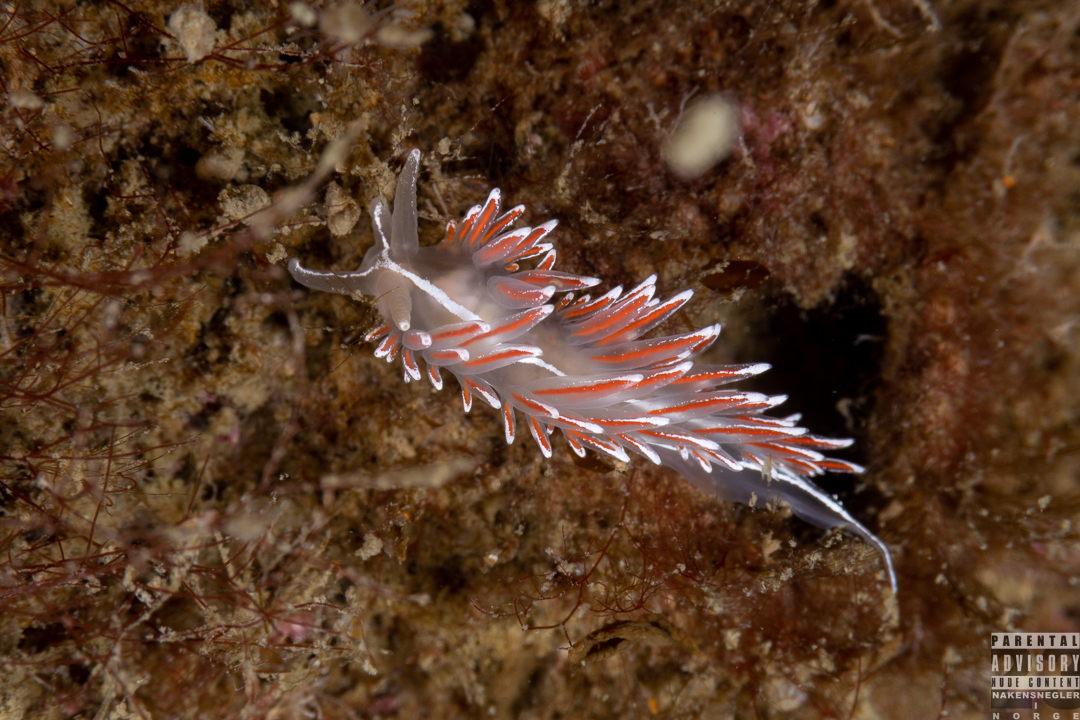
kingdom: Animalia
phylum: Mollusca
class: Gastropoda
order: Nudibranchia
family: Coryphellidae
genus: Coryphella
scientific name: Coryphella lineata
